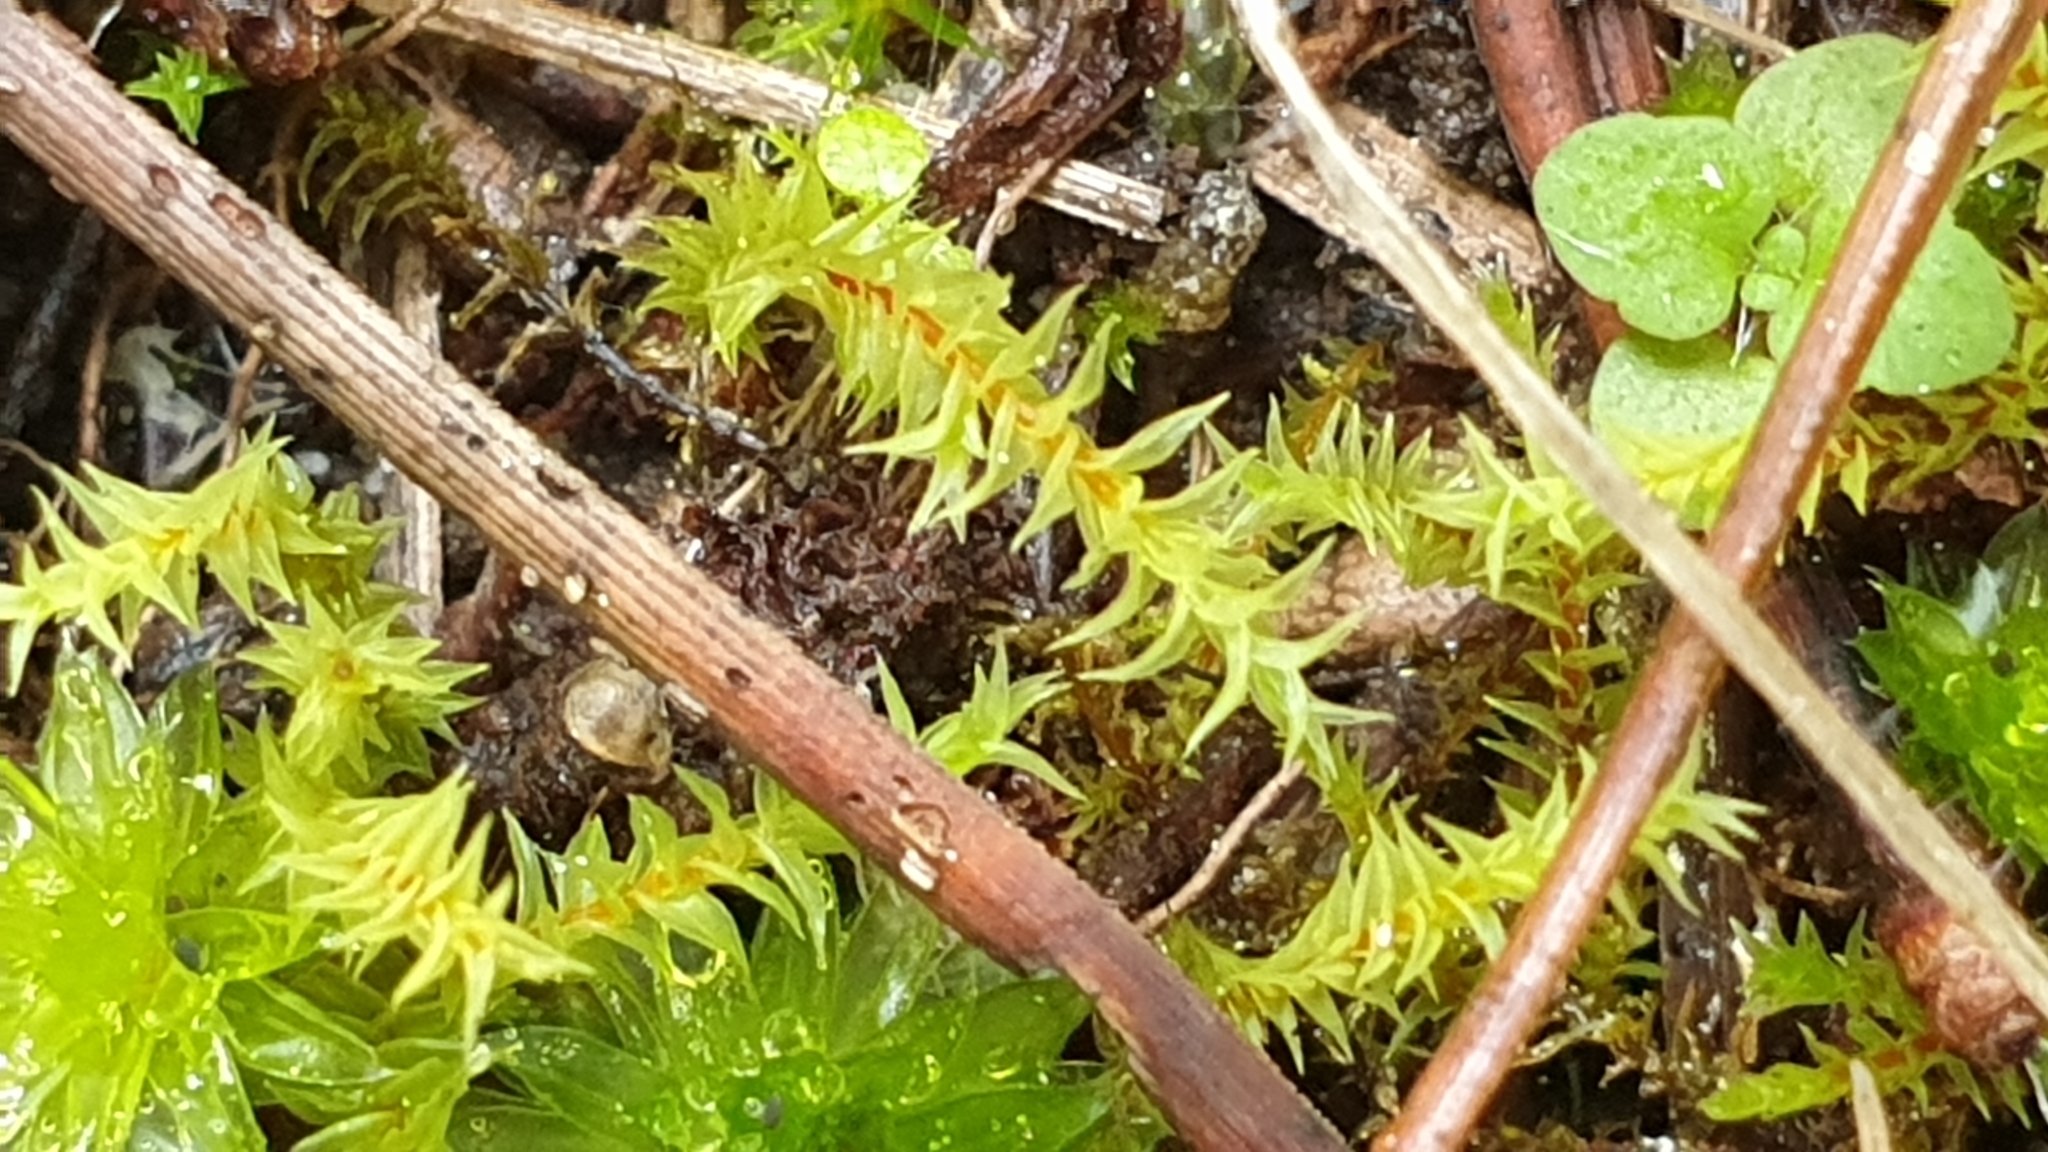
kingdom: Plantae
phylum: Bryophyta
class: Bryopsida
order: Pottiales
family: Pottiaceae
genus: Triquetrella
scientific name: Triquetrella papillata
